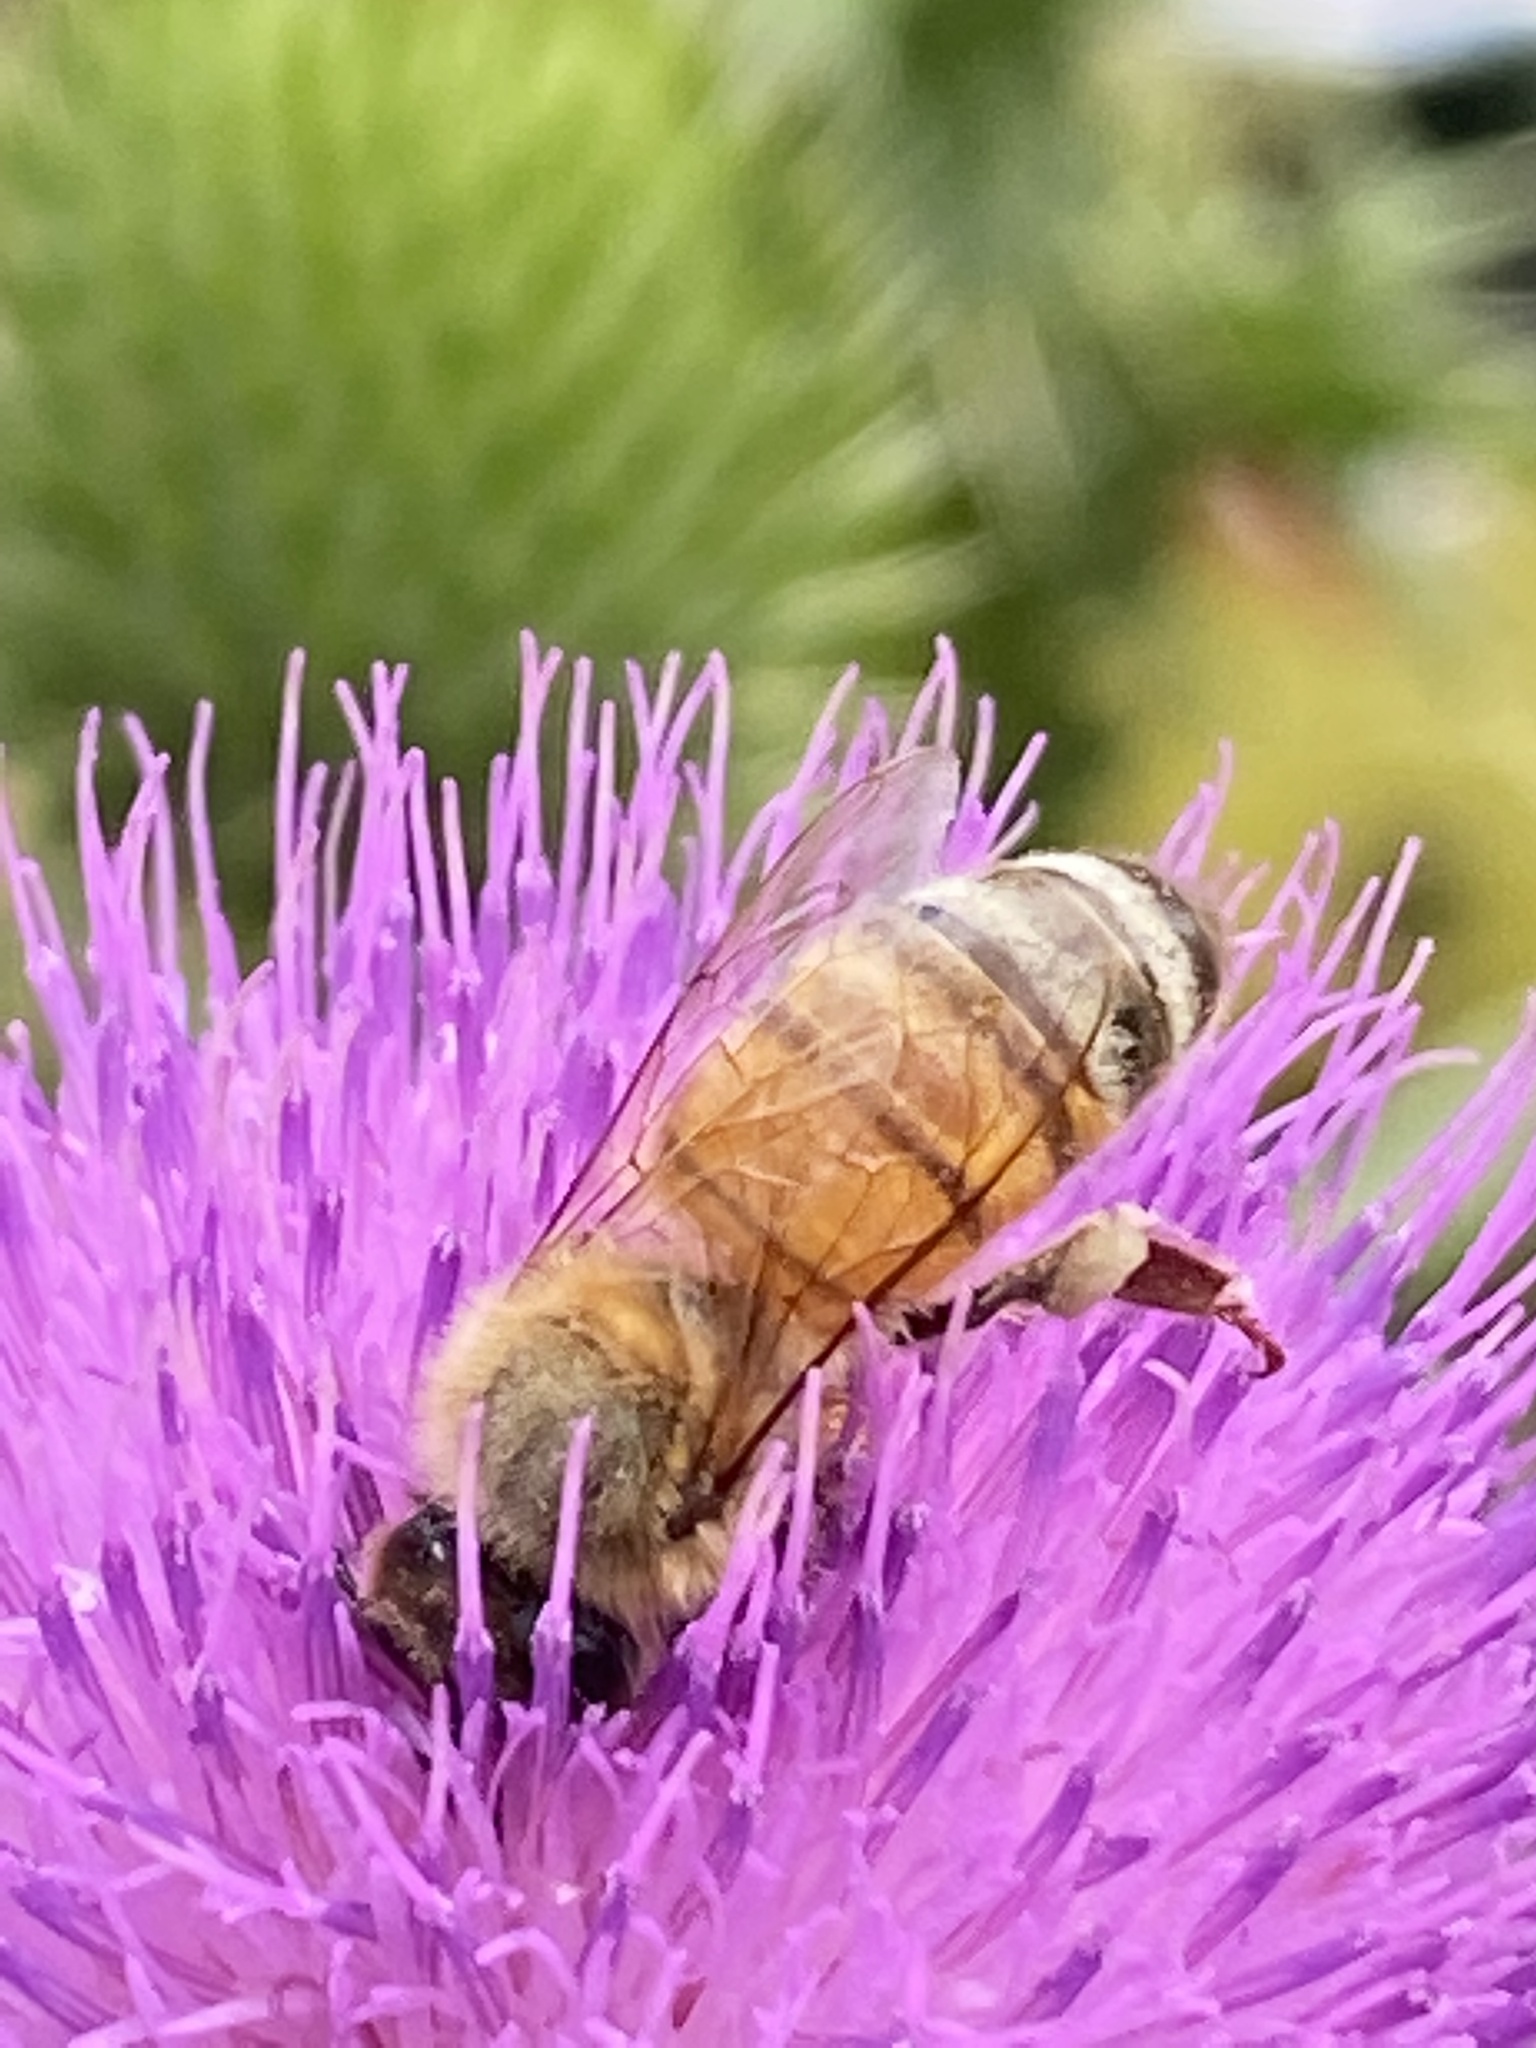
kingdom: Animalia
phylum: Arthropoda
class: Insecta
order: Hymenoptera
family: Apidae
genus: Apis
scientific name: Apis mellifera
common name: Honey bee
